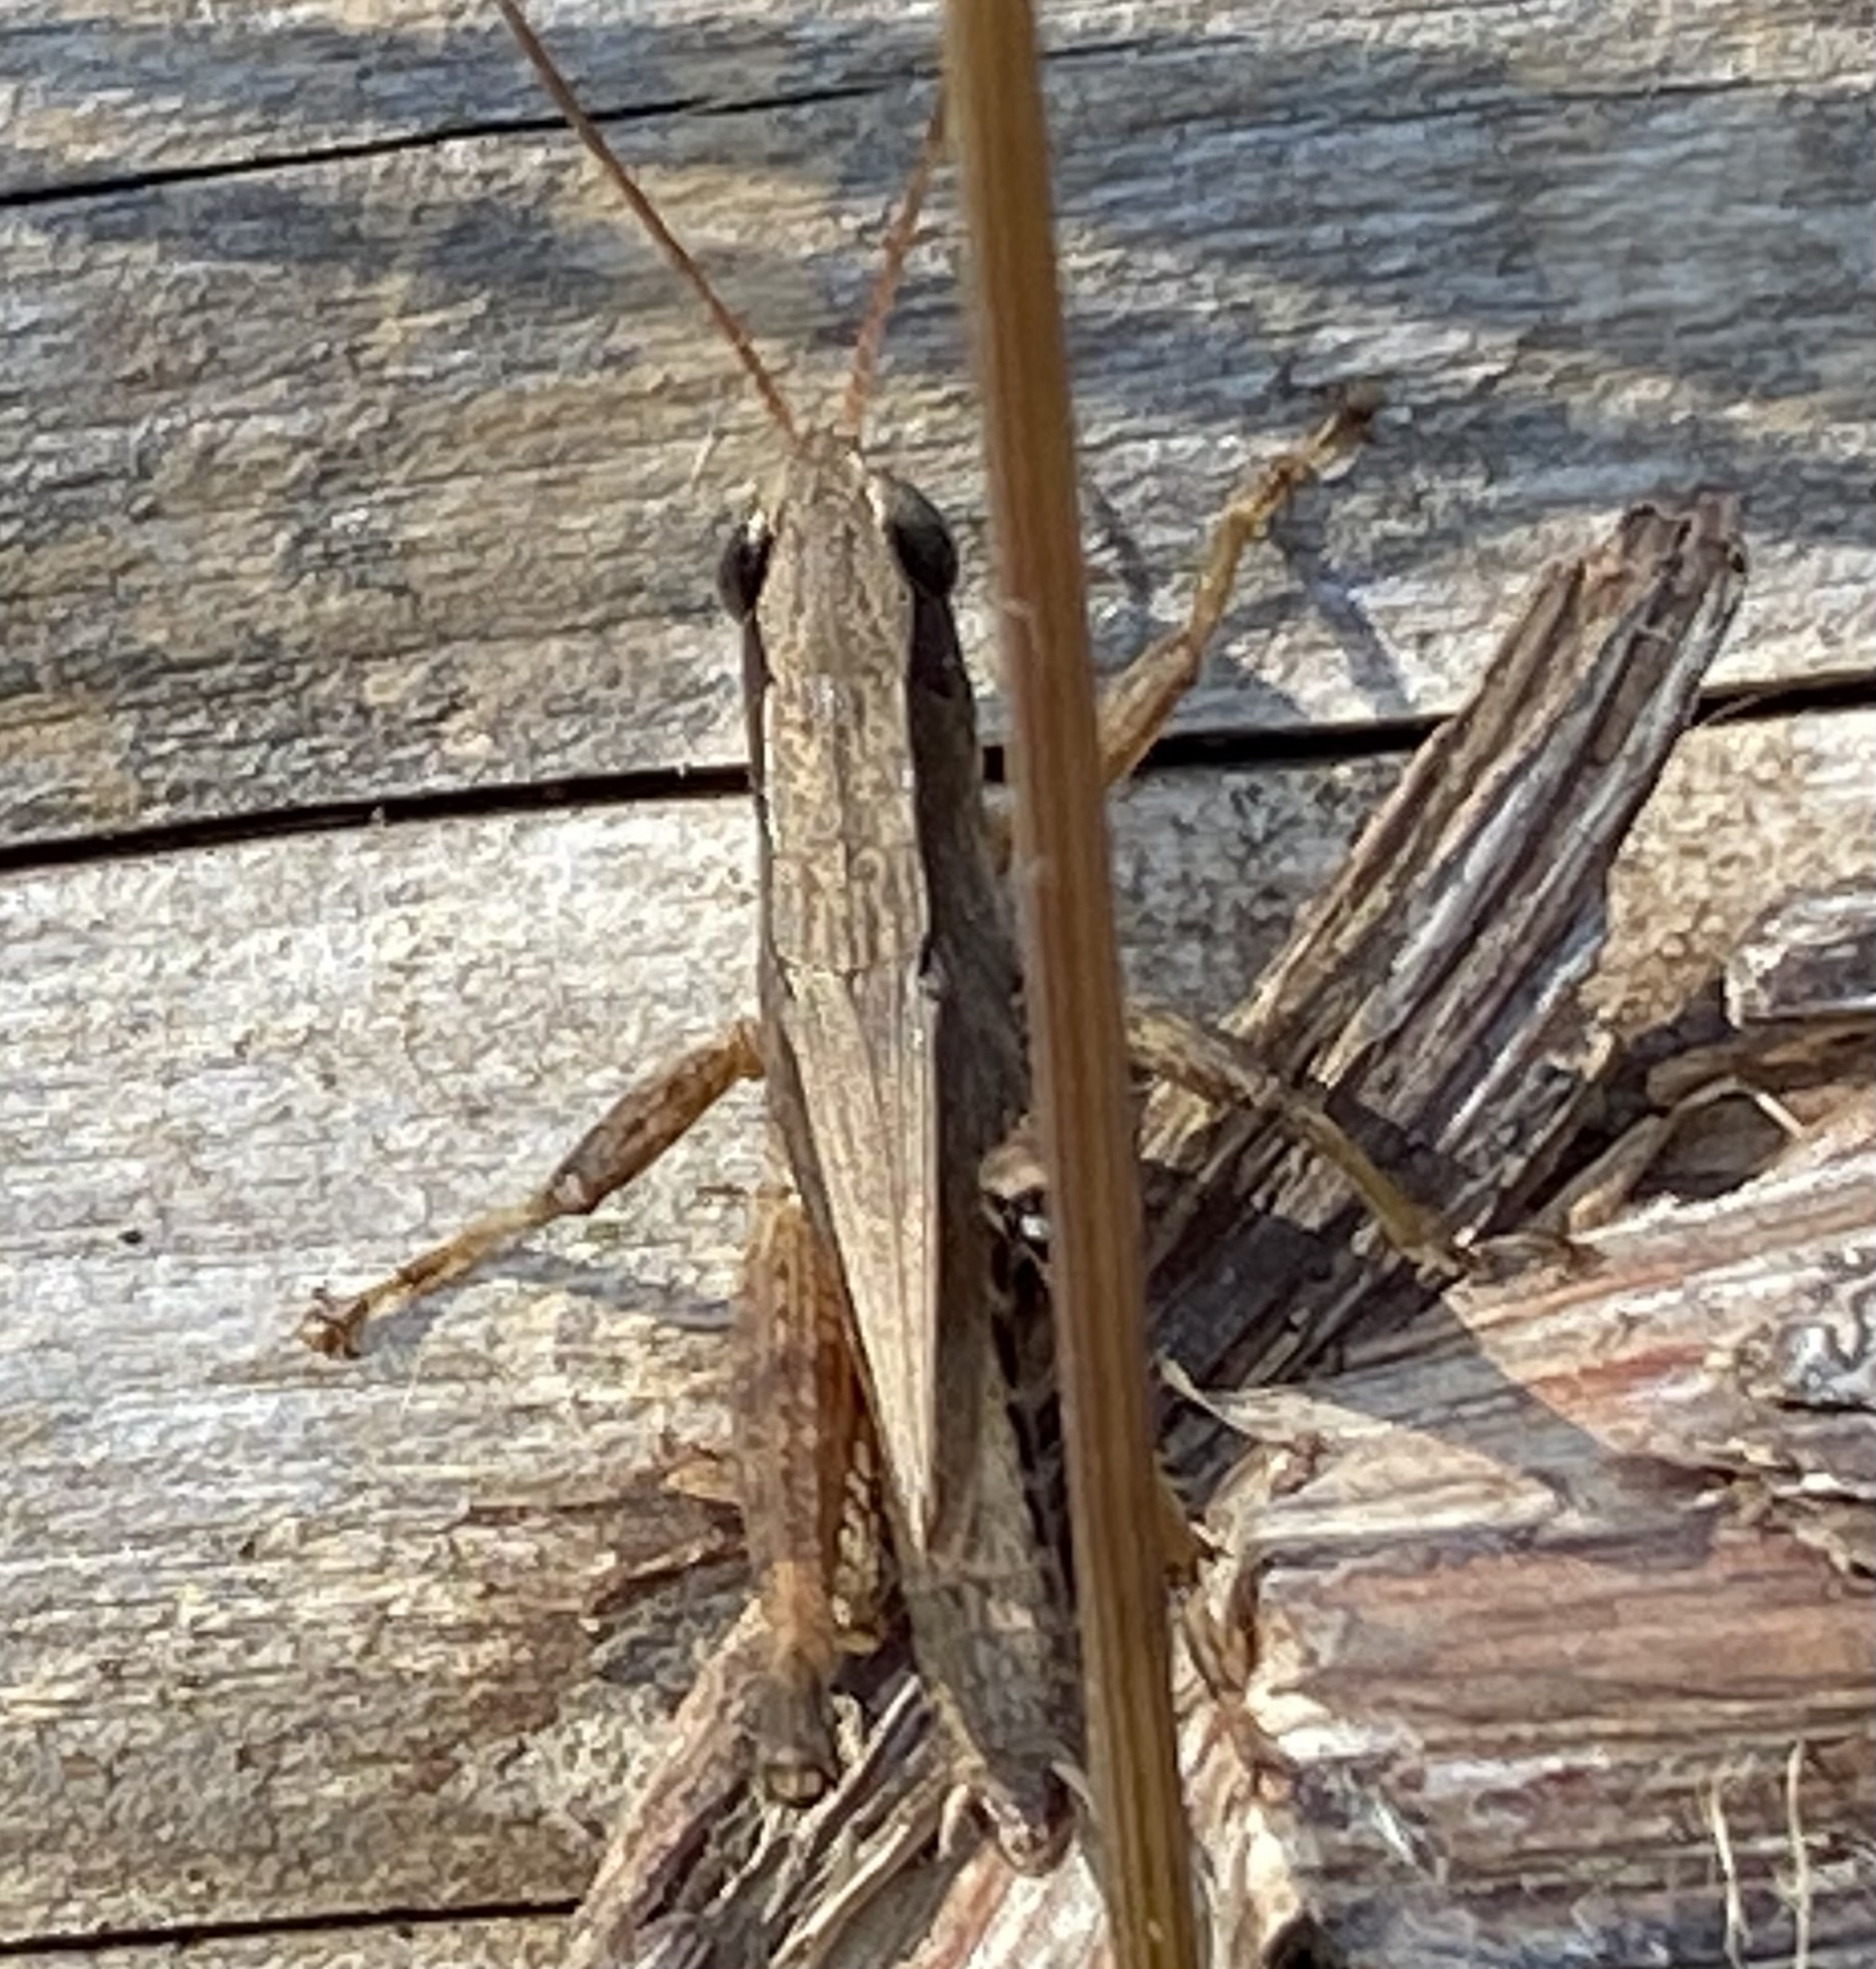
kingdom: Animalia
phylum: Arthropoda
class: Insecta
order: Orthoptera
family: Acrididae
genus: Dichromorpha
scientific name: Dichromorpha viridis
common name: Short-winged green grasshopper
